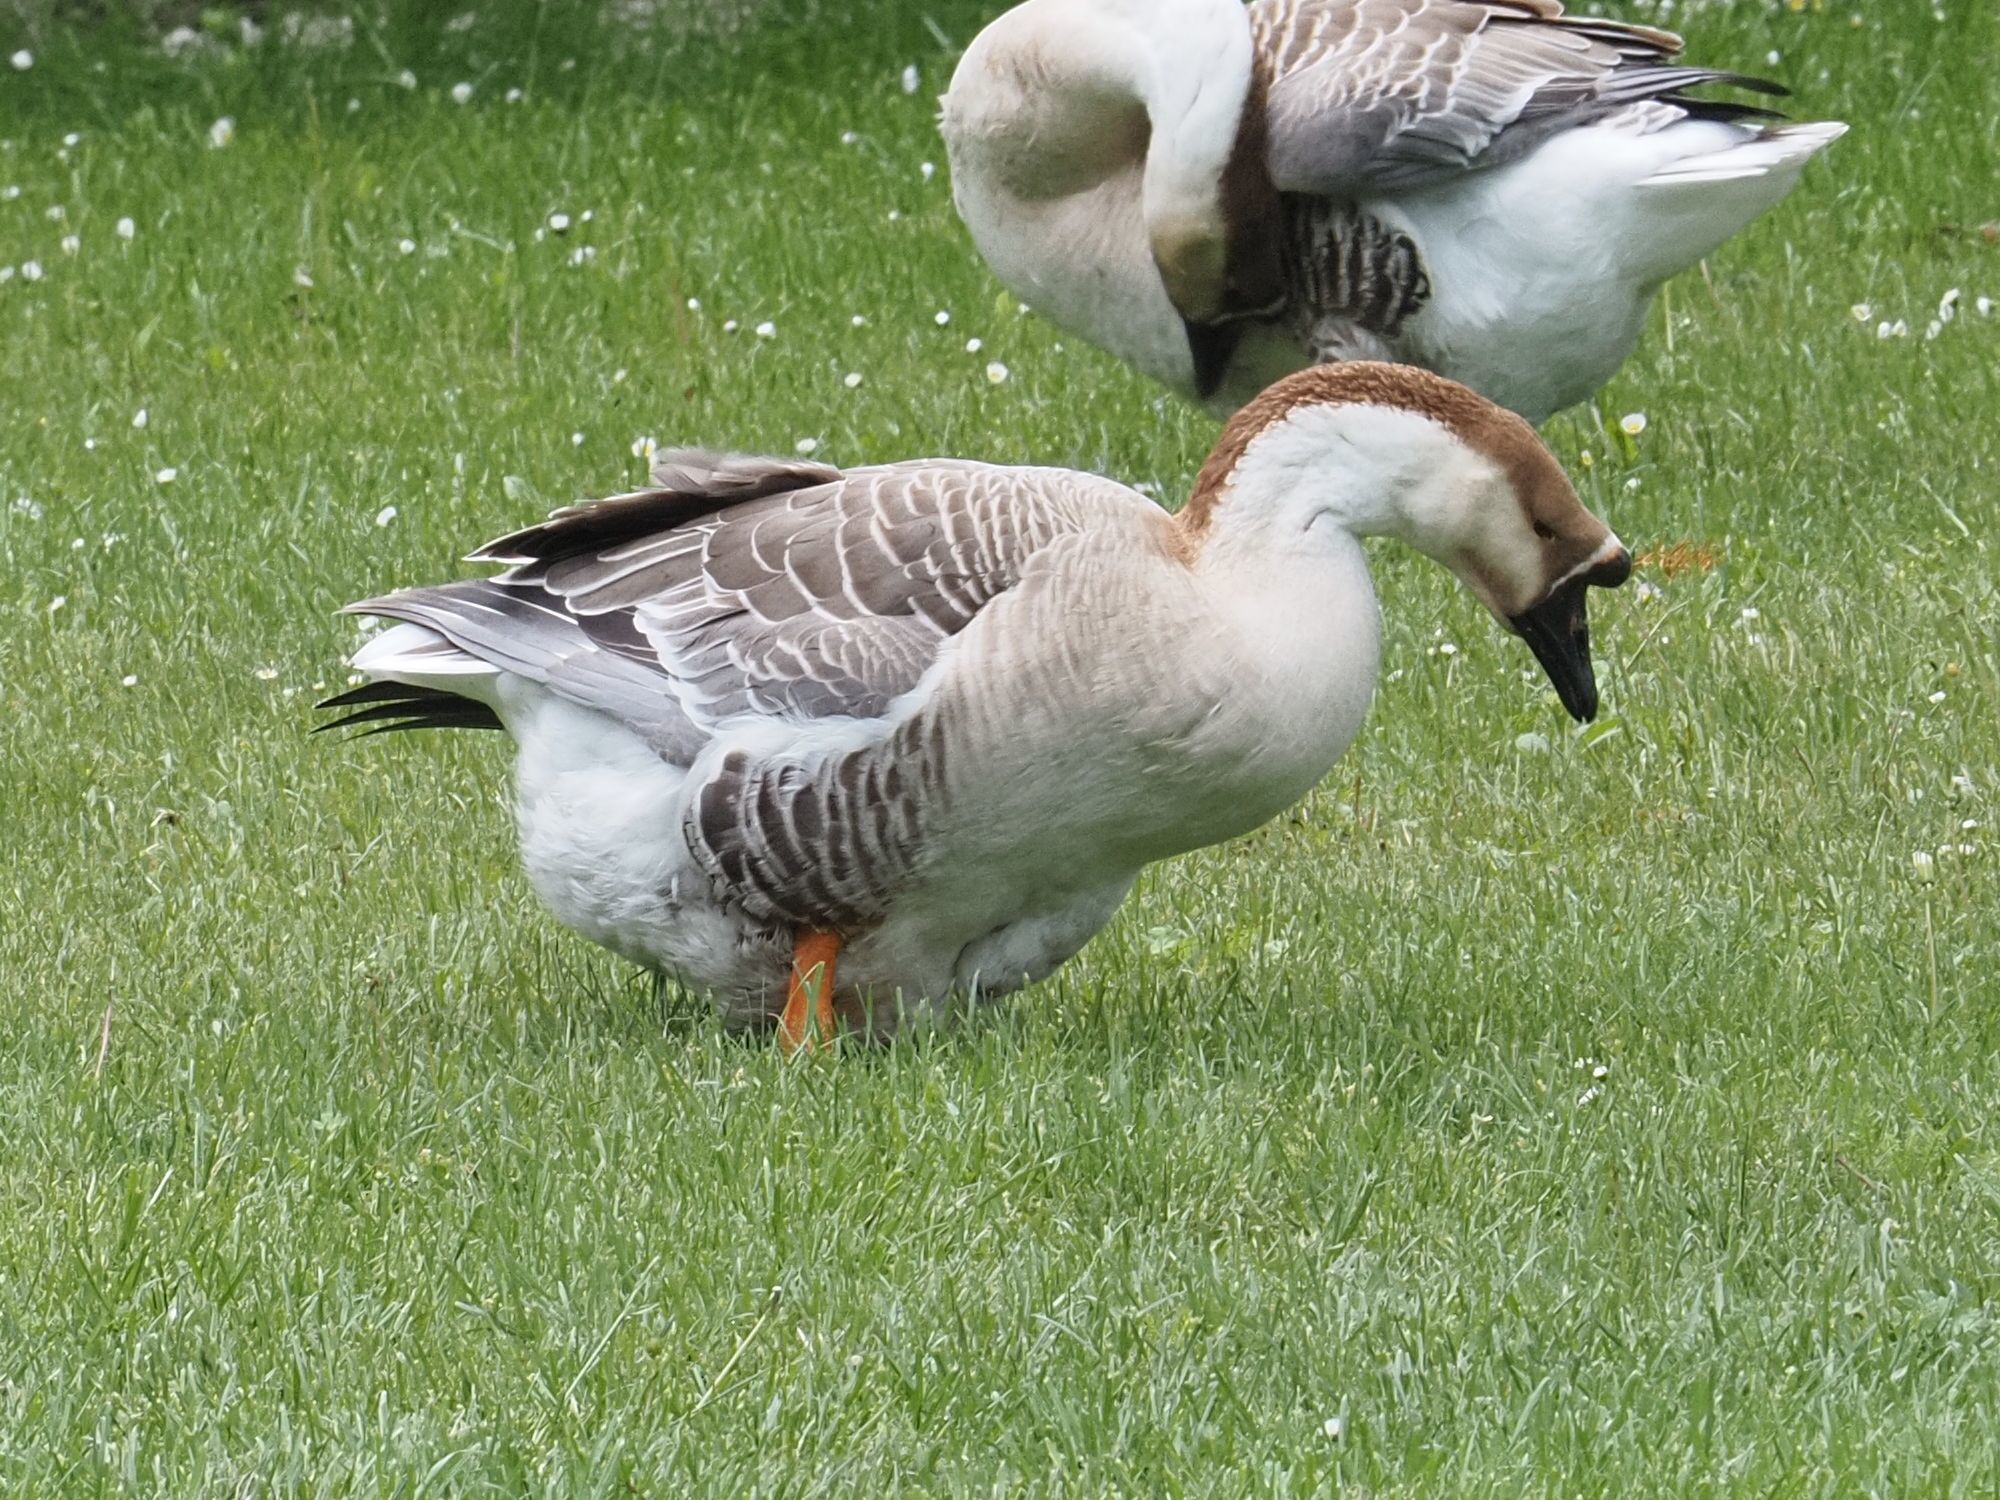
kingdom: Animalia
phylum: Chordata
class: Aves
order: Anseriformes
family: Anatidae
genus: Anser
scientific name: Anser cygnoides
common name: Swan goose
